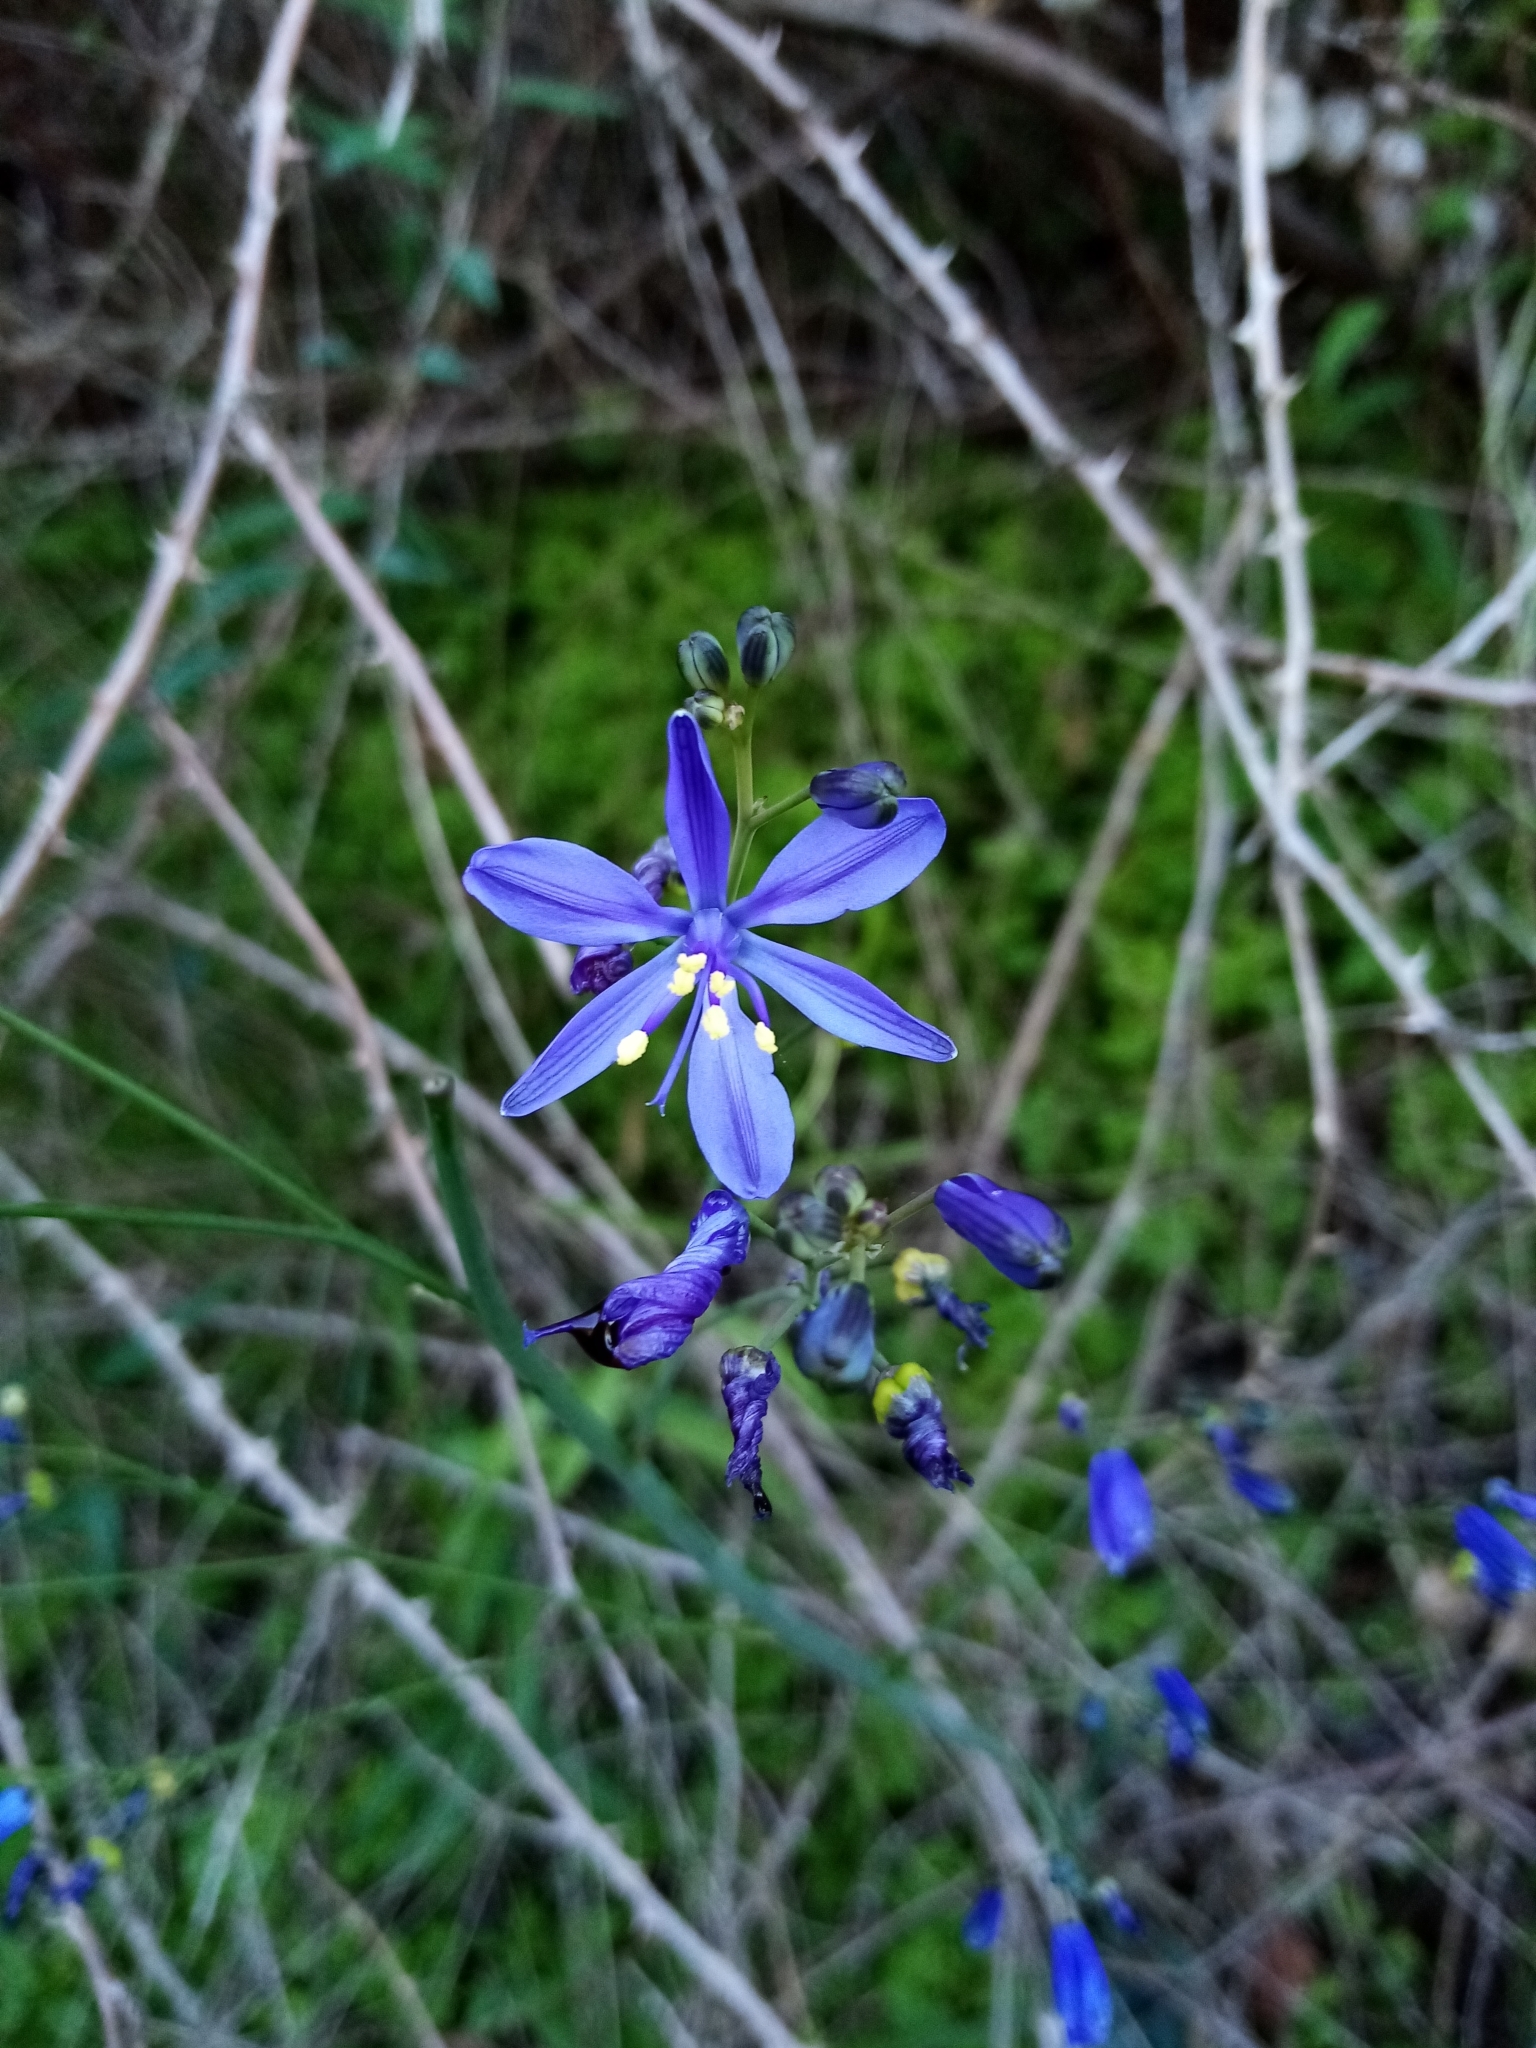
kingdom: Plantae
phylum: Tracheophyta
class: Liliopsida
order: Asparagales
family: Asphodelaceae
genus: Pasithea
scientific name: Pasithea caerulea
